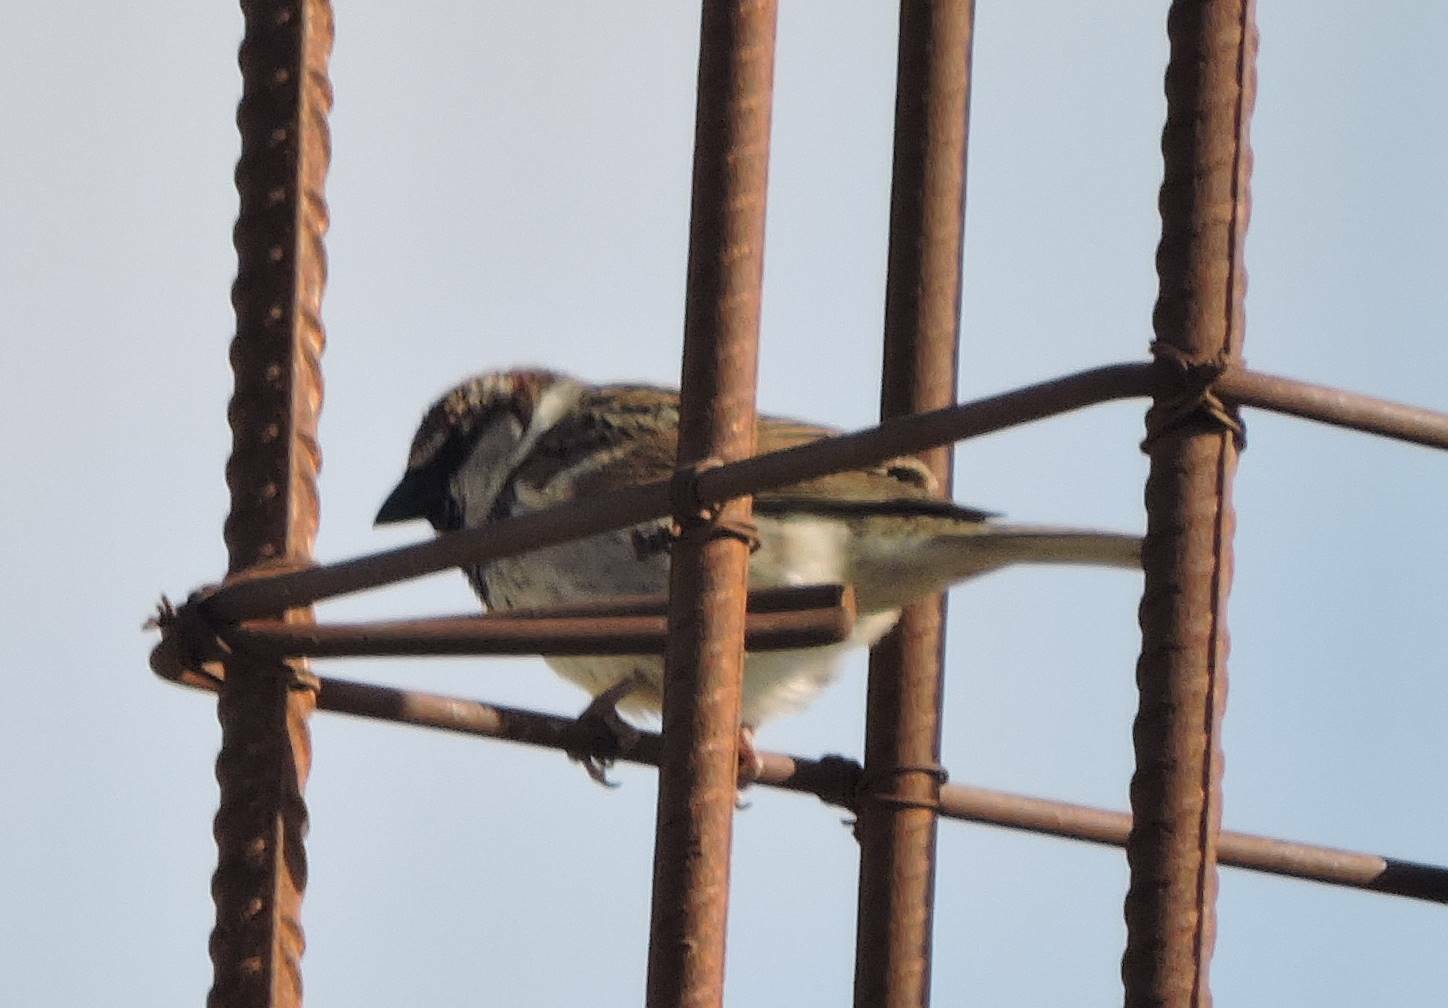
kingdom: Animalia
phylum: Chordata
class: Aves
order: Passeriformes
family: Passeridae
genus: Passer
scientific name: Passer hispaniolensis
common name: Spanish sparrow
